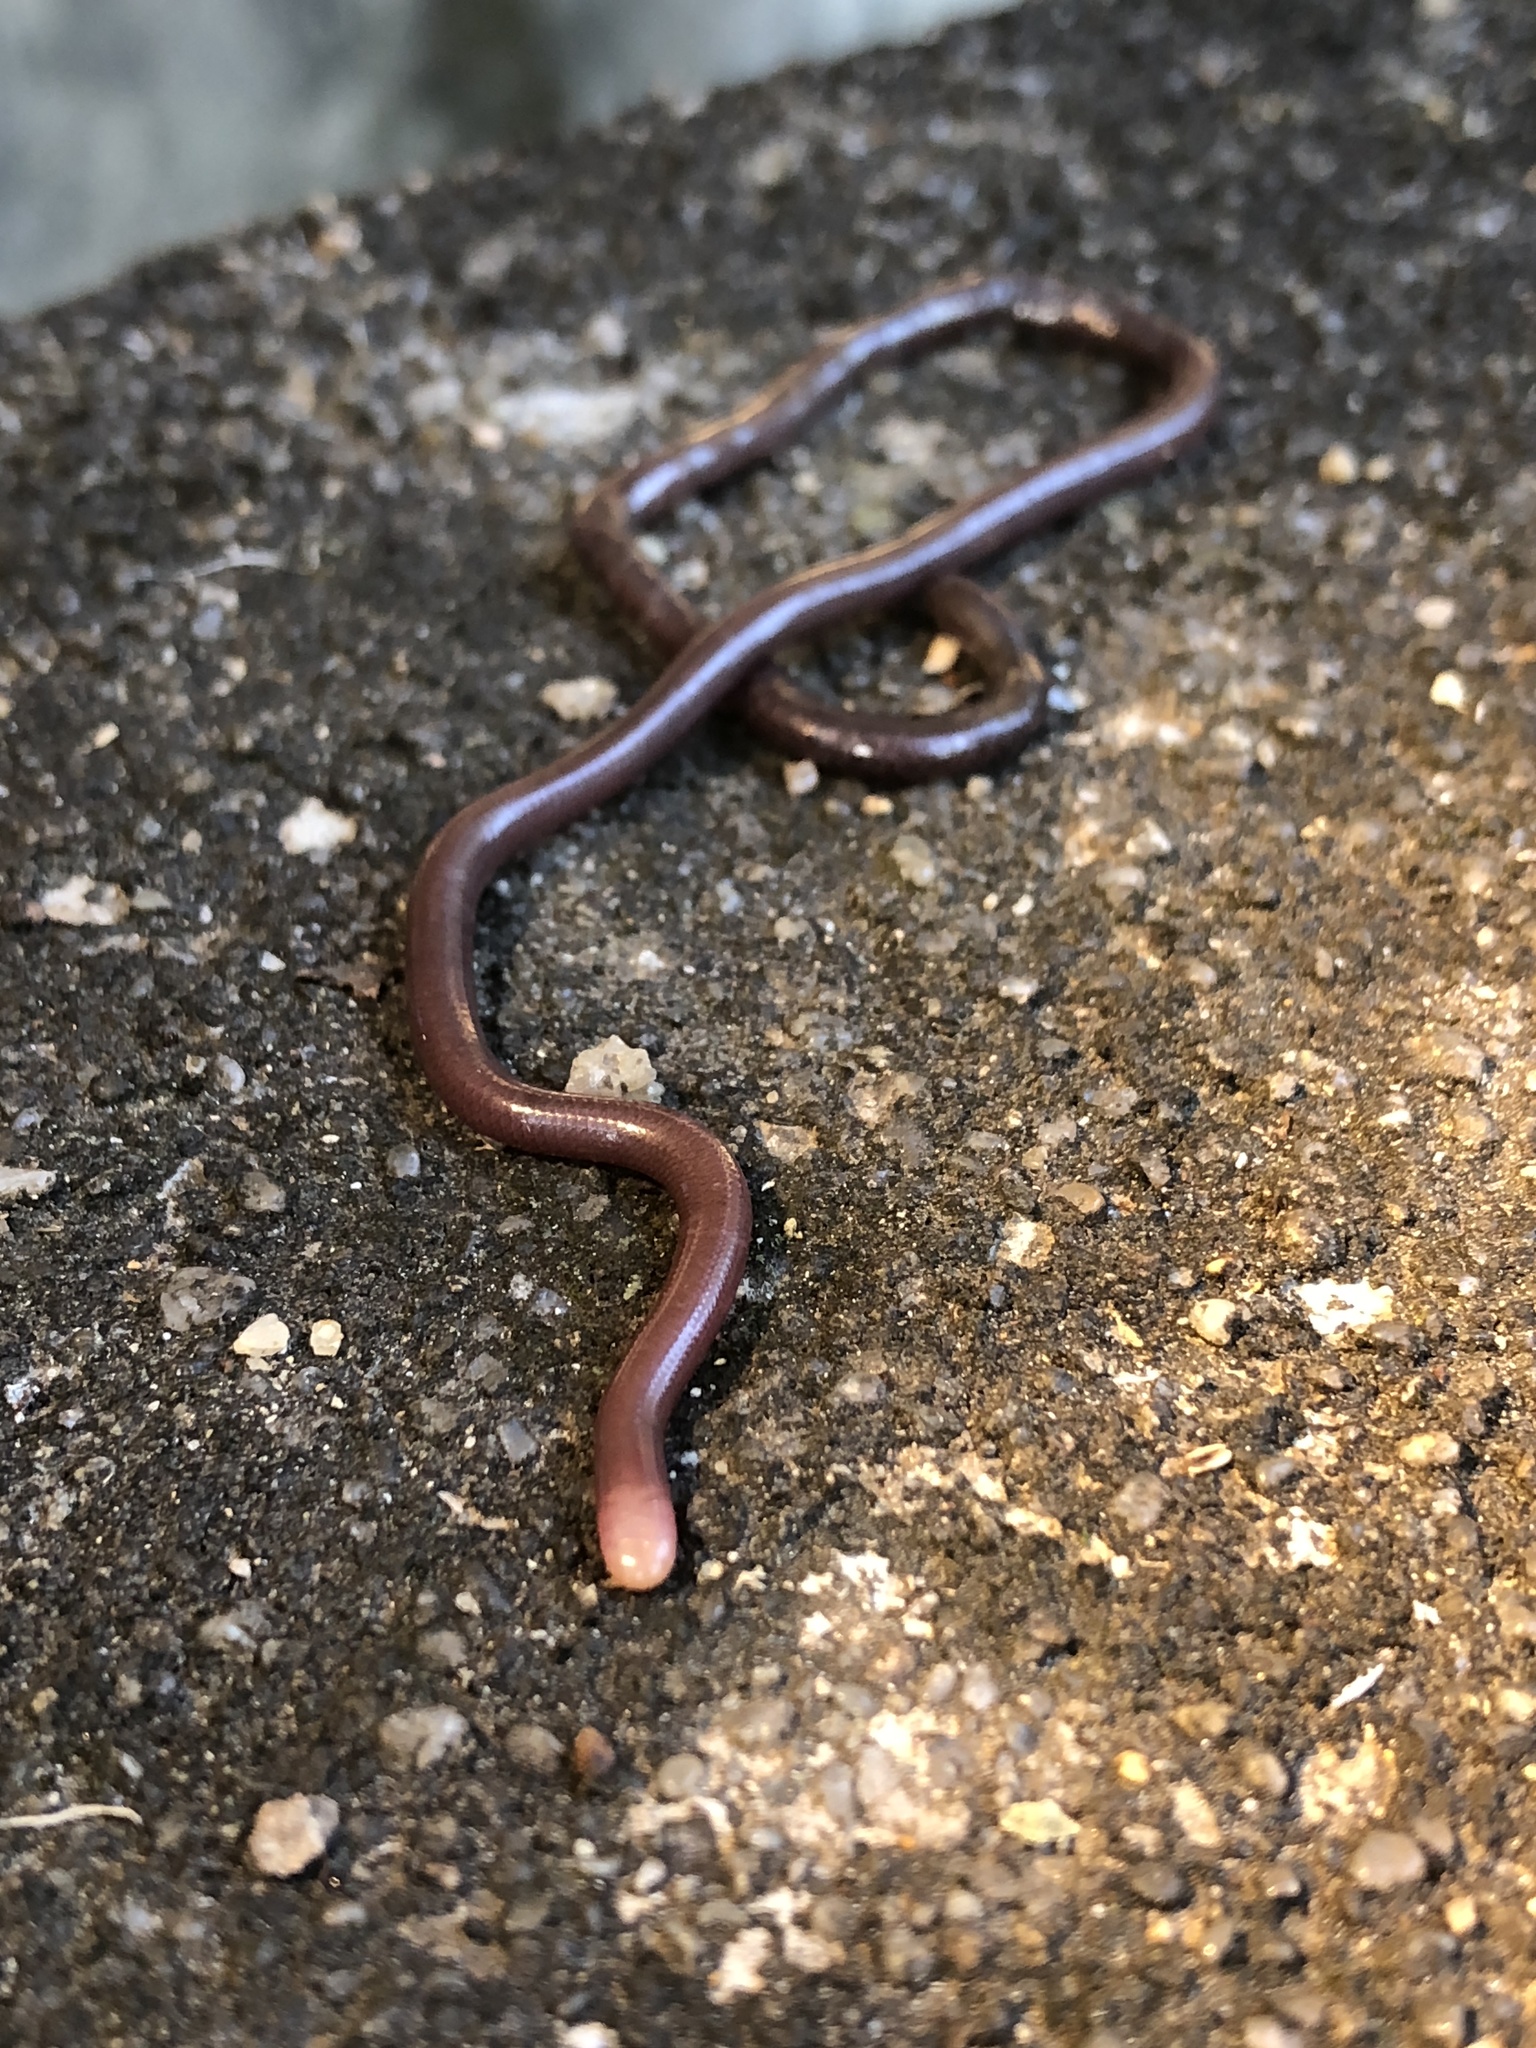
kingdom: Animalia
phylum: Chordata
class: Squamata
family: Typhlopidae
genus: Indotyphlops
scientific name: Indotyphlops albiceps
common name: White-headed blind snake
